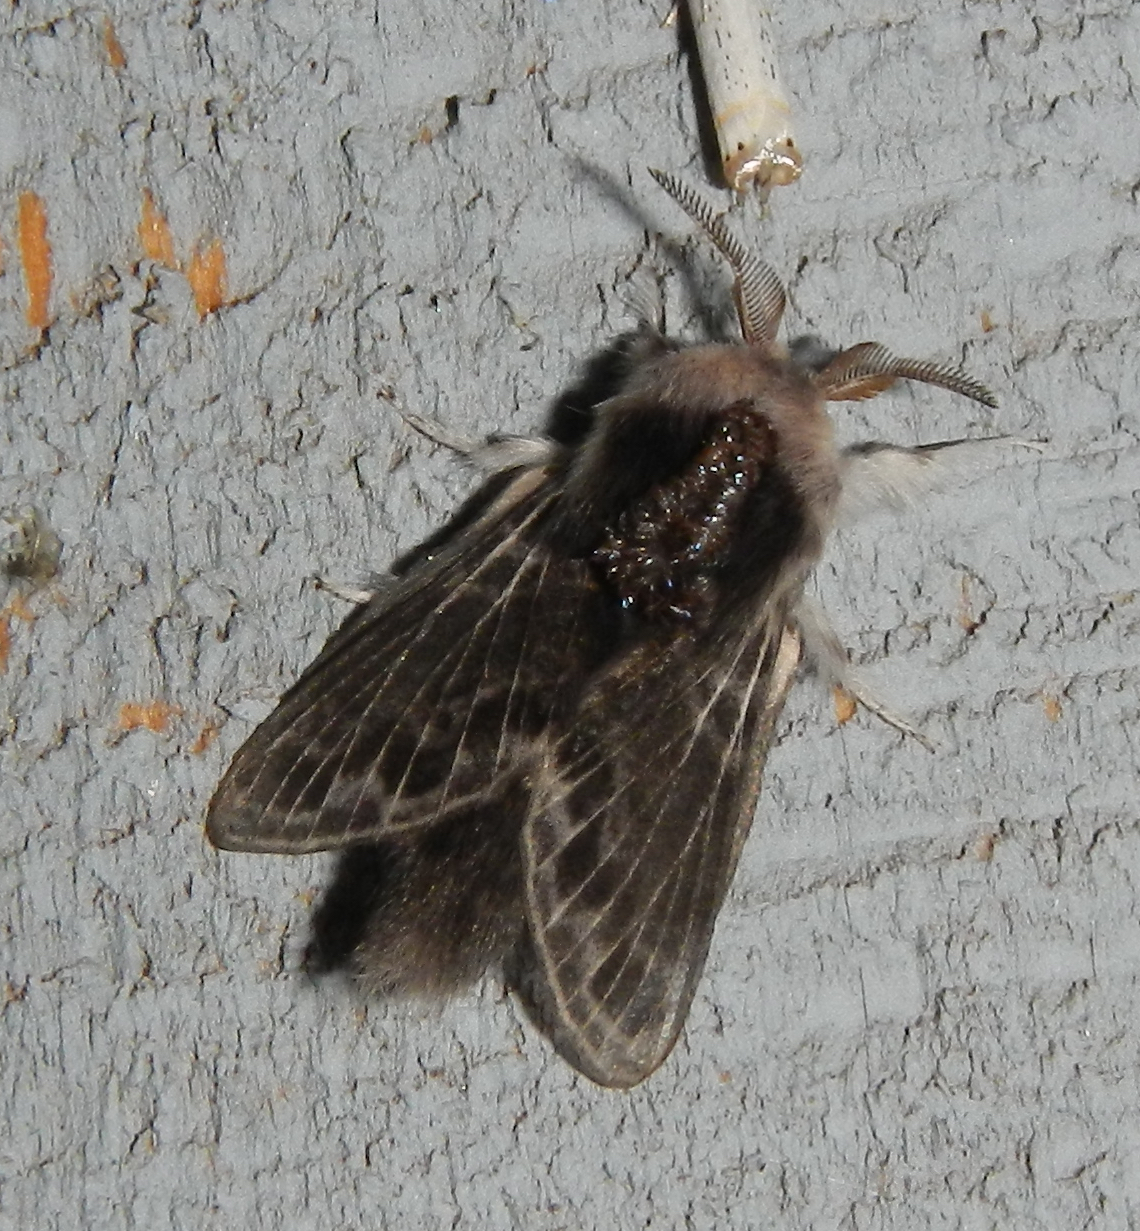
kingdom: Animalia
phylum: Arthropoda
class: Insecta
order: Lepidoptera
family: Lasiocampidae
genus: Tolype
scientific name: Tolype laricis
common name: Larch tolype moth
